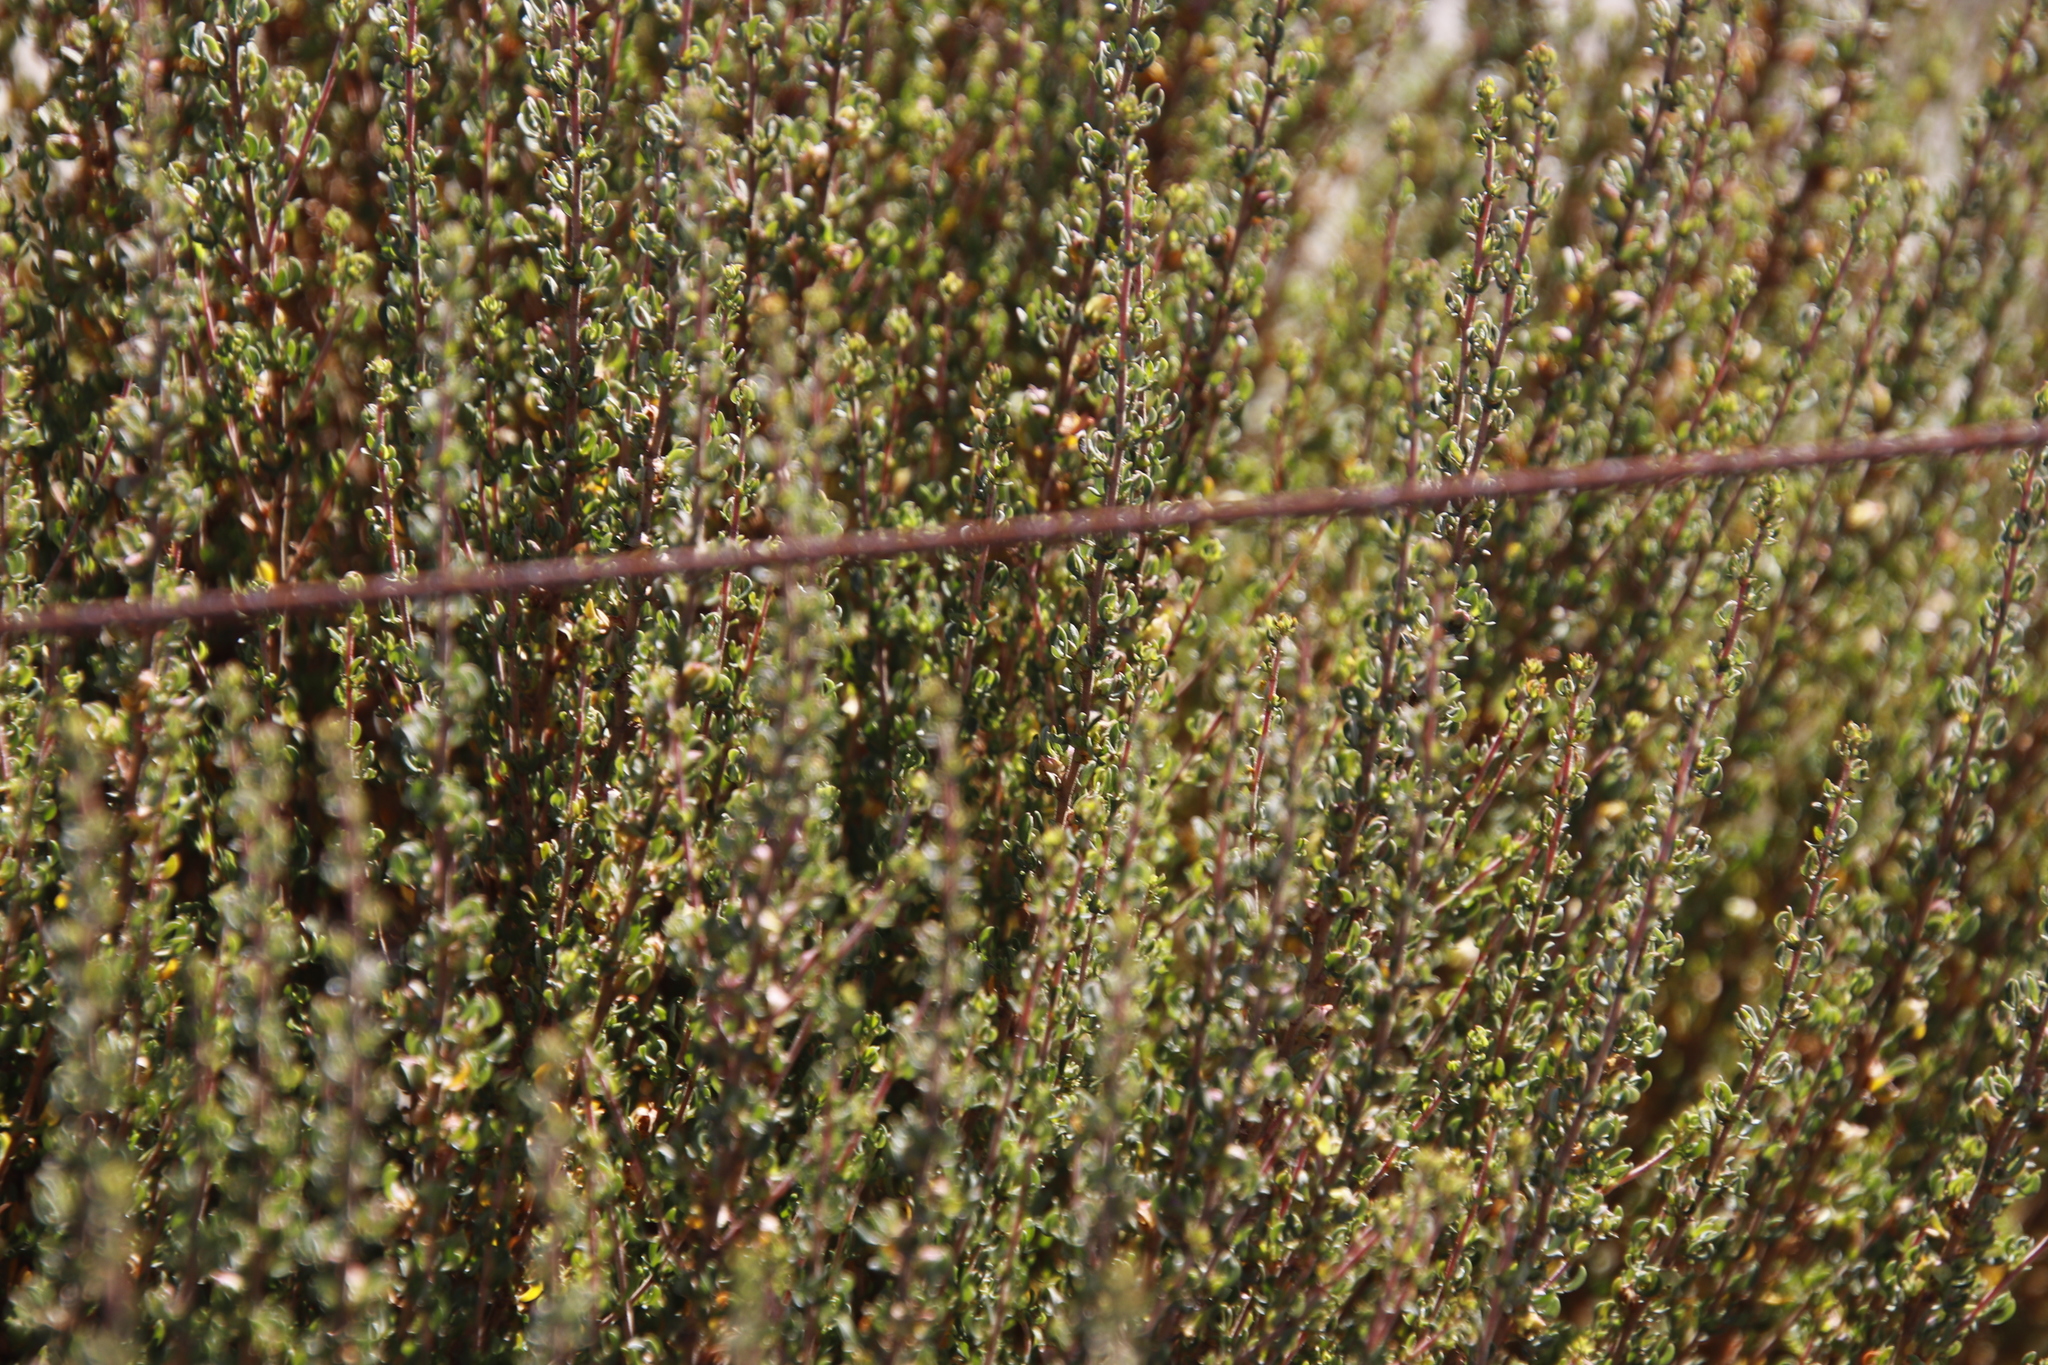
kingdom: Plantae
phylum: Tracheophyta
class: Magnoliopsida
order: Rosales
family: Rosaceae
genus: Cliffortia
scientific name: Cliffortia falcata
